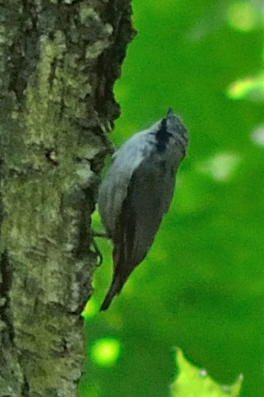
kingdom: Animalia
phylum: Chordata
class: Aves
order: Passeriformes
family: Sittidae
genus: Sitta
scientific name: Sitta europaea
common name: Eurasian nuthatch
